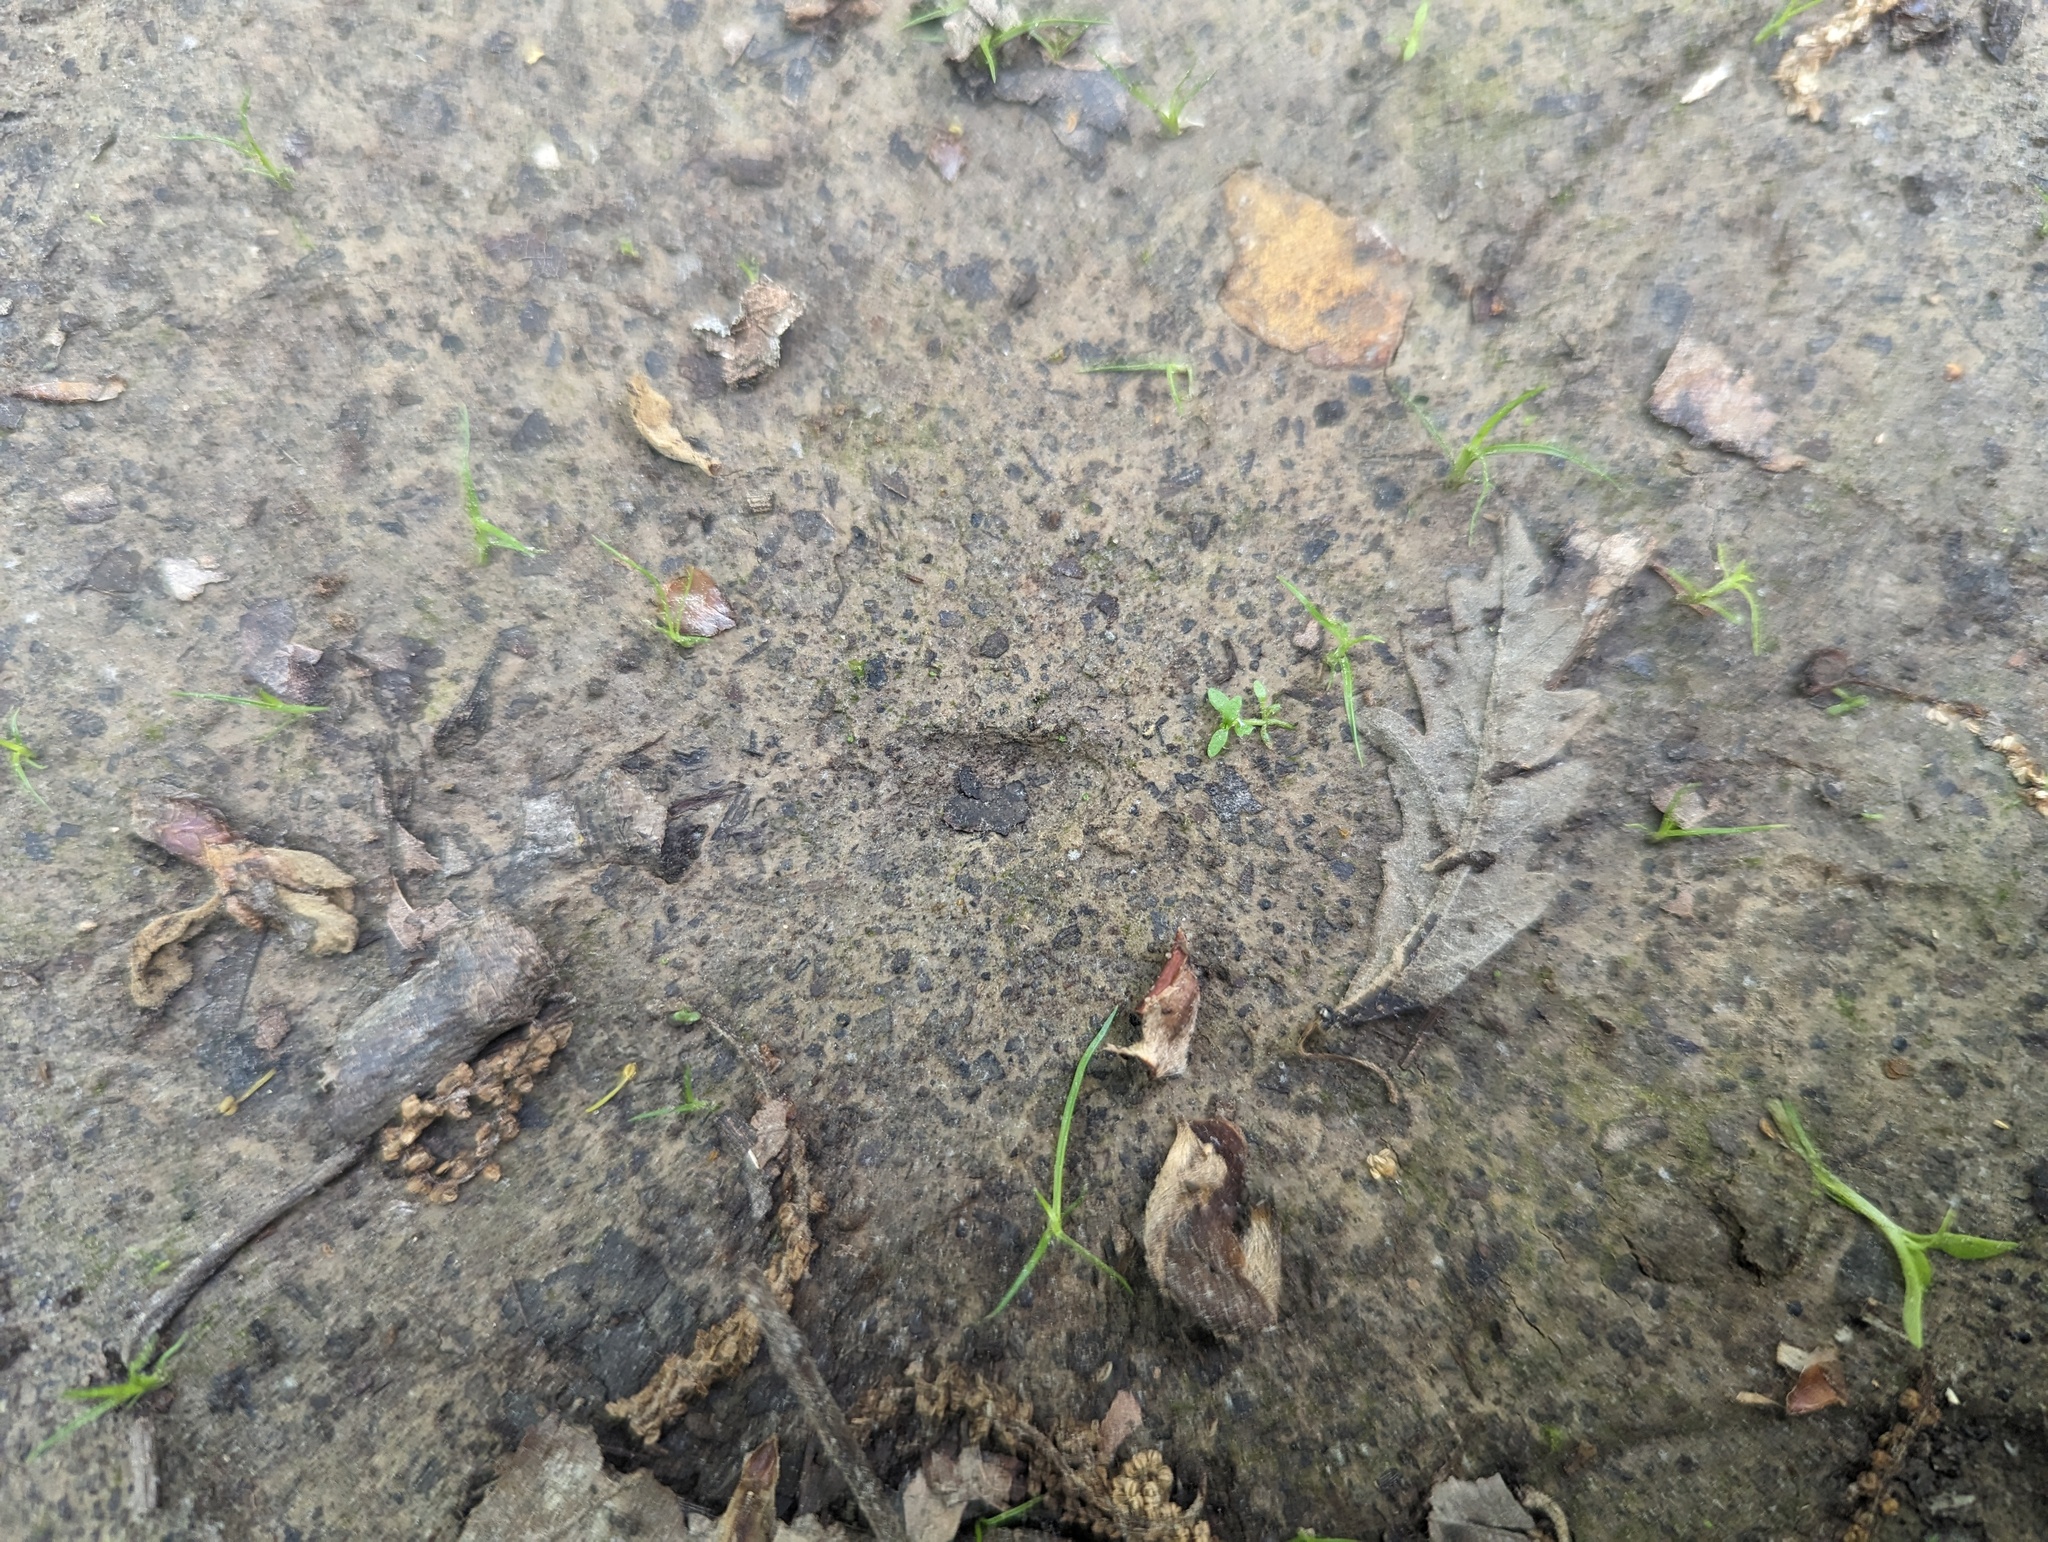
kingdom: Plantae
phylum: Tracheophyta
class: Magnoliopsida
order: Lamiales
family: Plantaginaceae
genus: Callitriche
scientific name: Callitriche terrestris
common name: Terrestrial water-starwort
